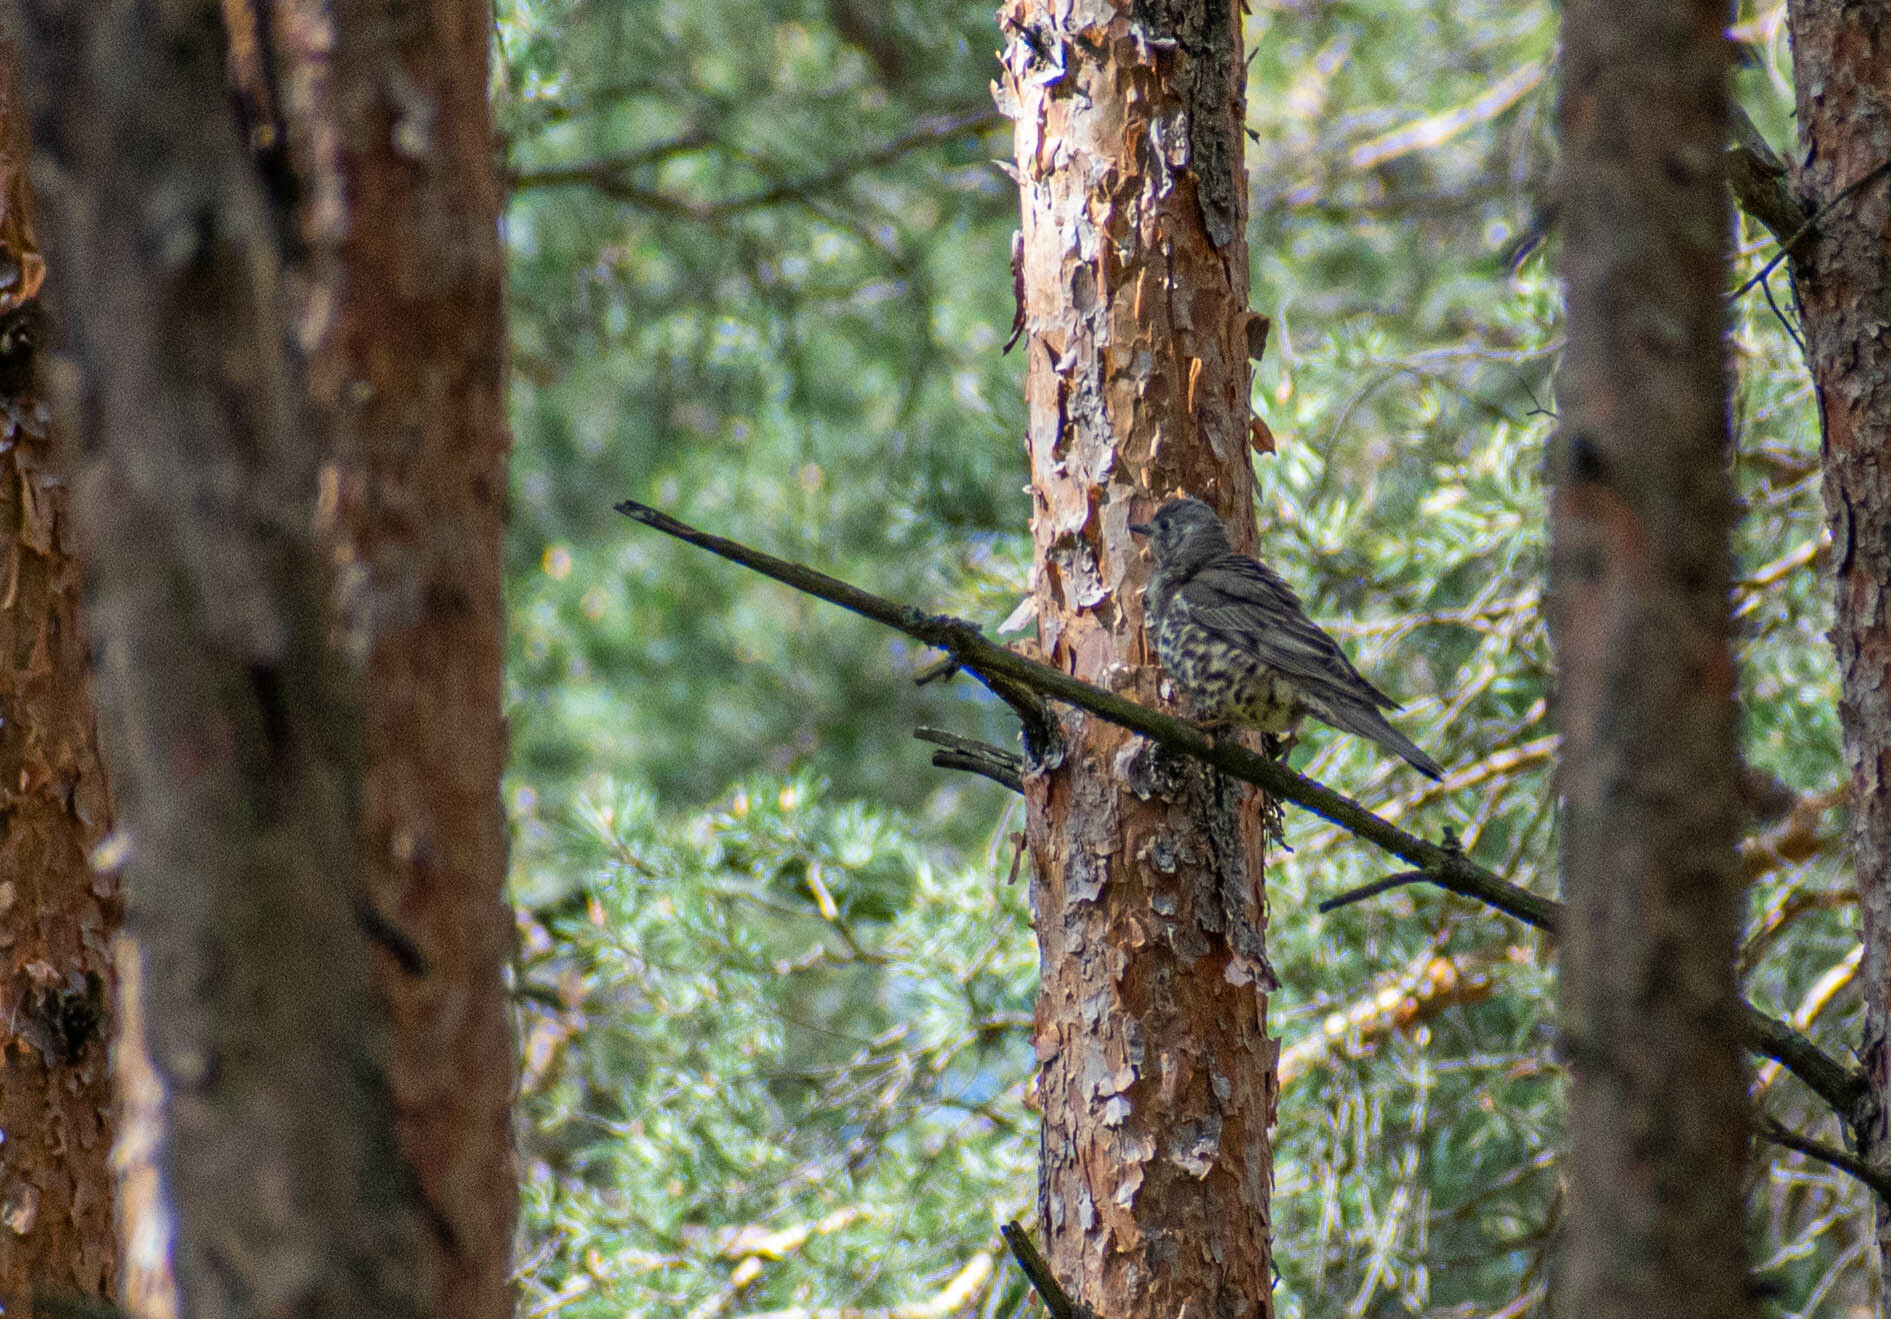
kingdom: Animalia
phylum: Chordata
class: Aves
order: Passeriformes
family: Turdidae
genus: Turdus
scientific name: Turdus viscivorus
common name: Mistle thrush
